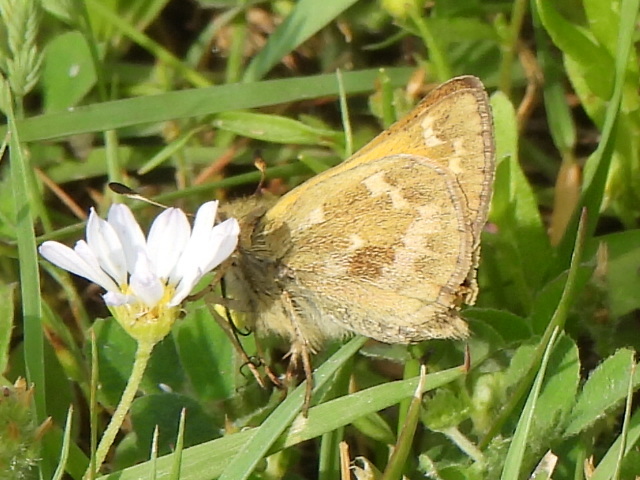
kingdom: Animalia
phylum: Arthropoda
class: Insecta
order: Lepidoptera
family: Hesperiidae
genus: Atalopedes
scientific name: Atalopedes
